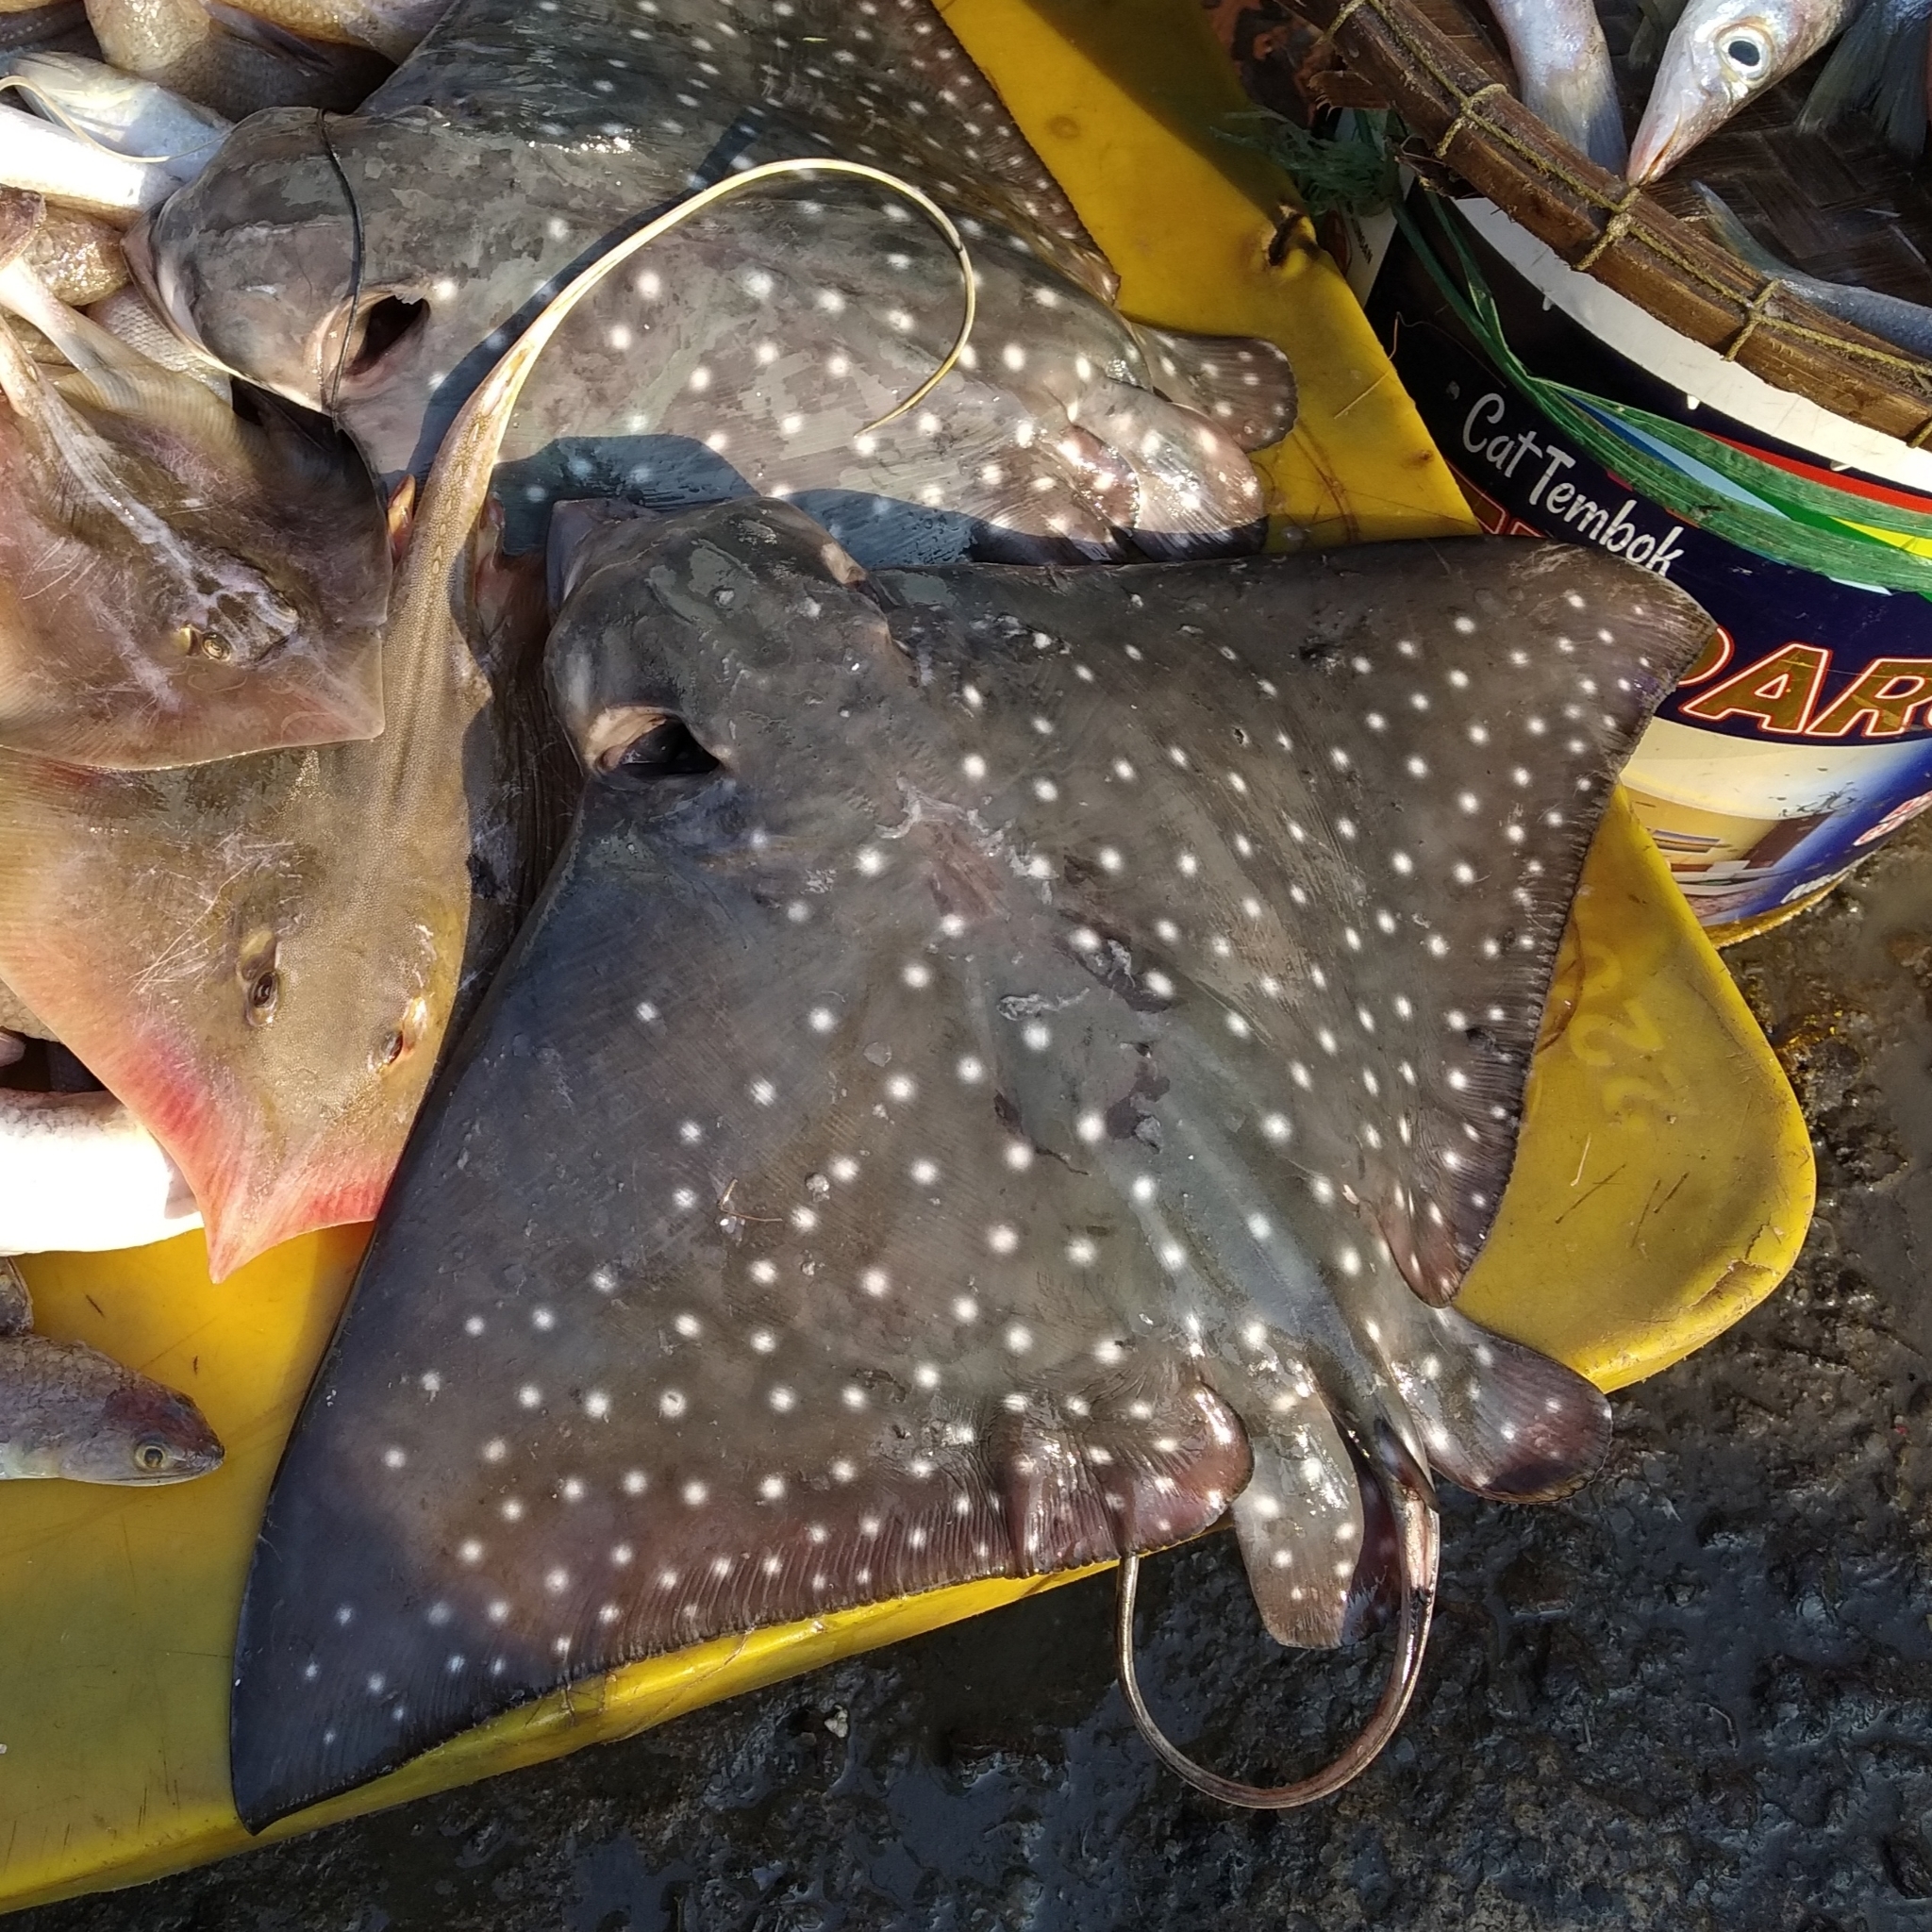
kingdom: Animalia
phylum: Chordata
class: Elasmobranchii
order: Myliobatiformes
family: Myliobatidae
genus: Aetobatus
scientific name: Aetobatus ocellatus
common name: Ocellated eagle ray
